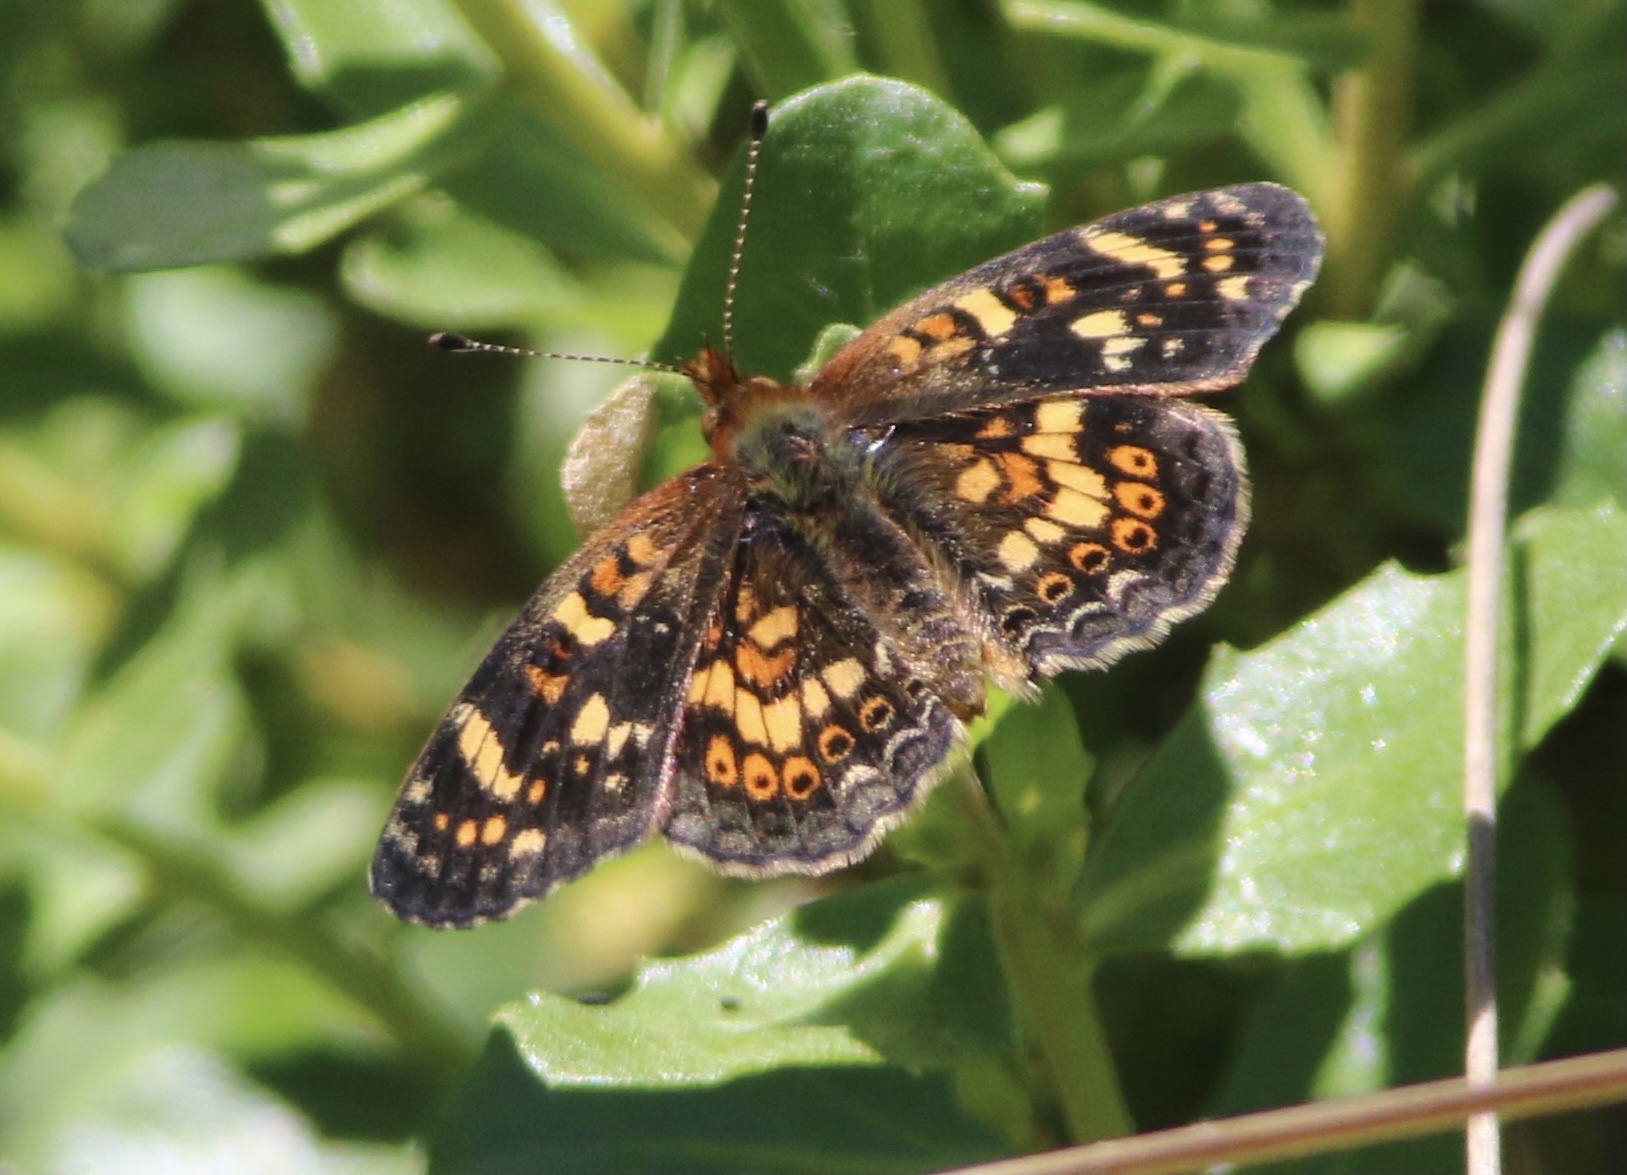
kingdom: Animalia
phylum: Arthropoda
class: Insecta
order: Lepidoptera
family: Nymphalidae
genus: Phyciodes
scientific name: Phyciodes tharos
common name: Pearl crescent
